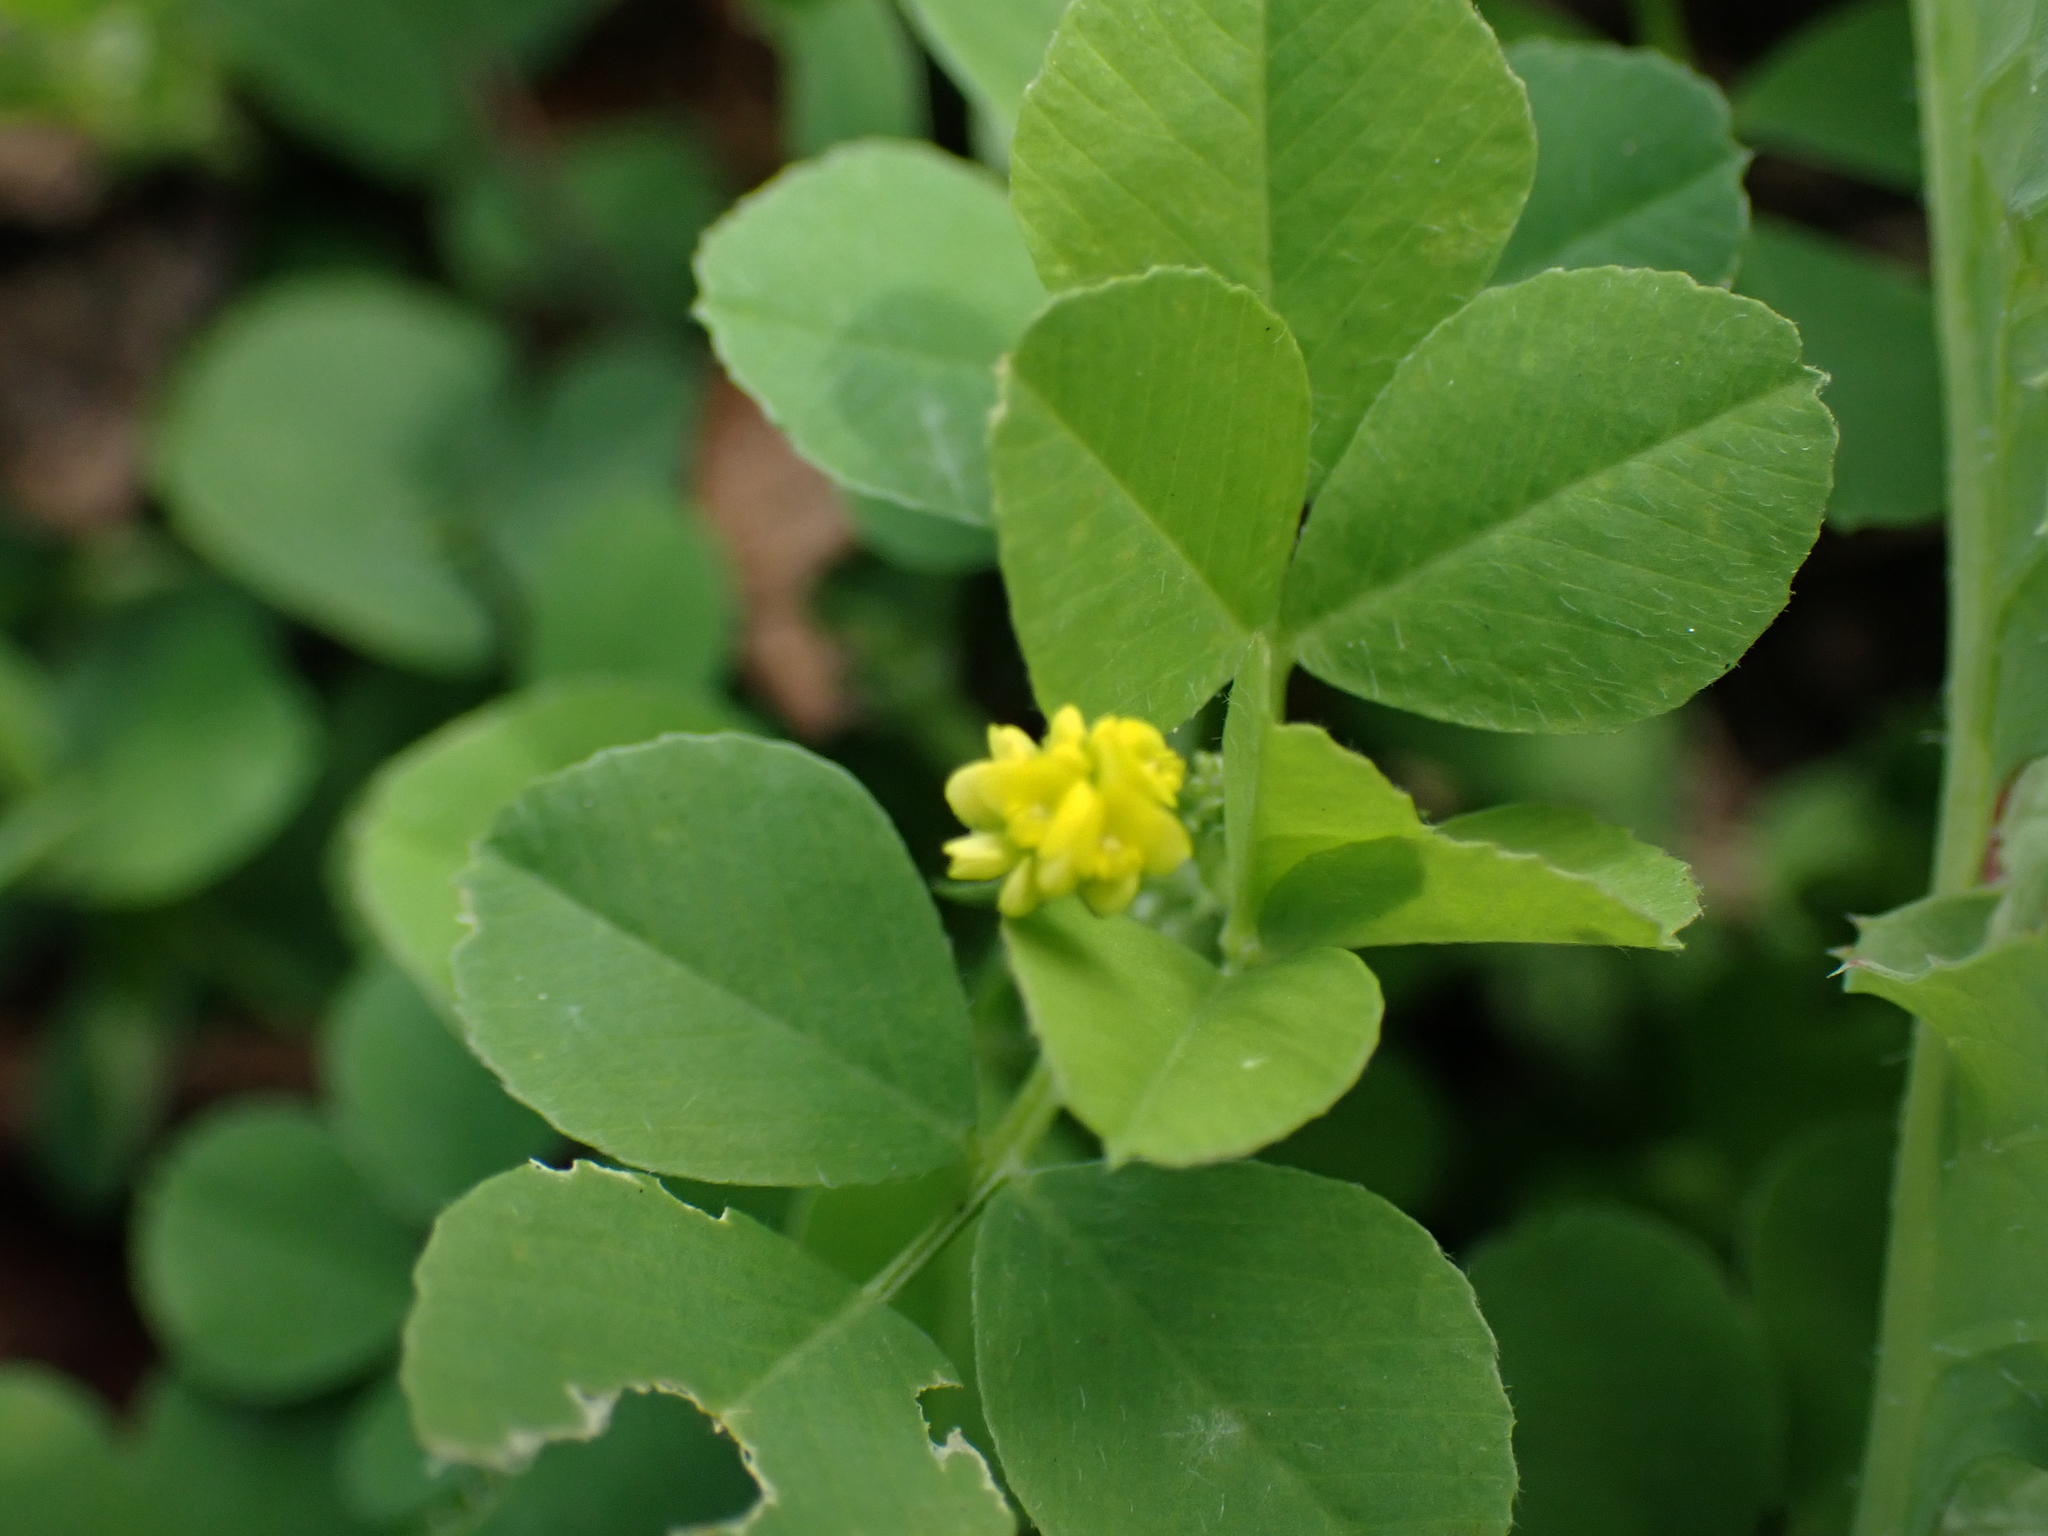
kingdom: Plantae
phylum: Tracheophyta
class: Magnoliopsida
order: Fabales
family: Fabaceae
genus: Medicago
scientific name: Medicago lupulina
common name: Black medick
